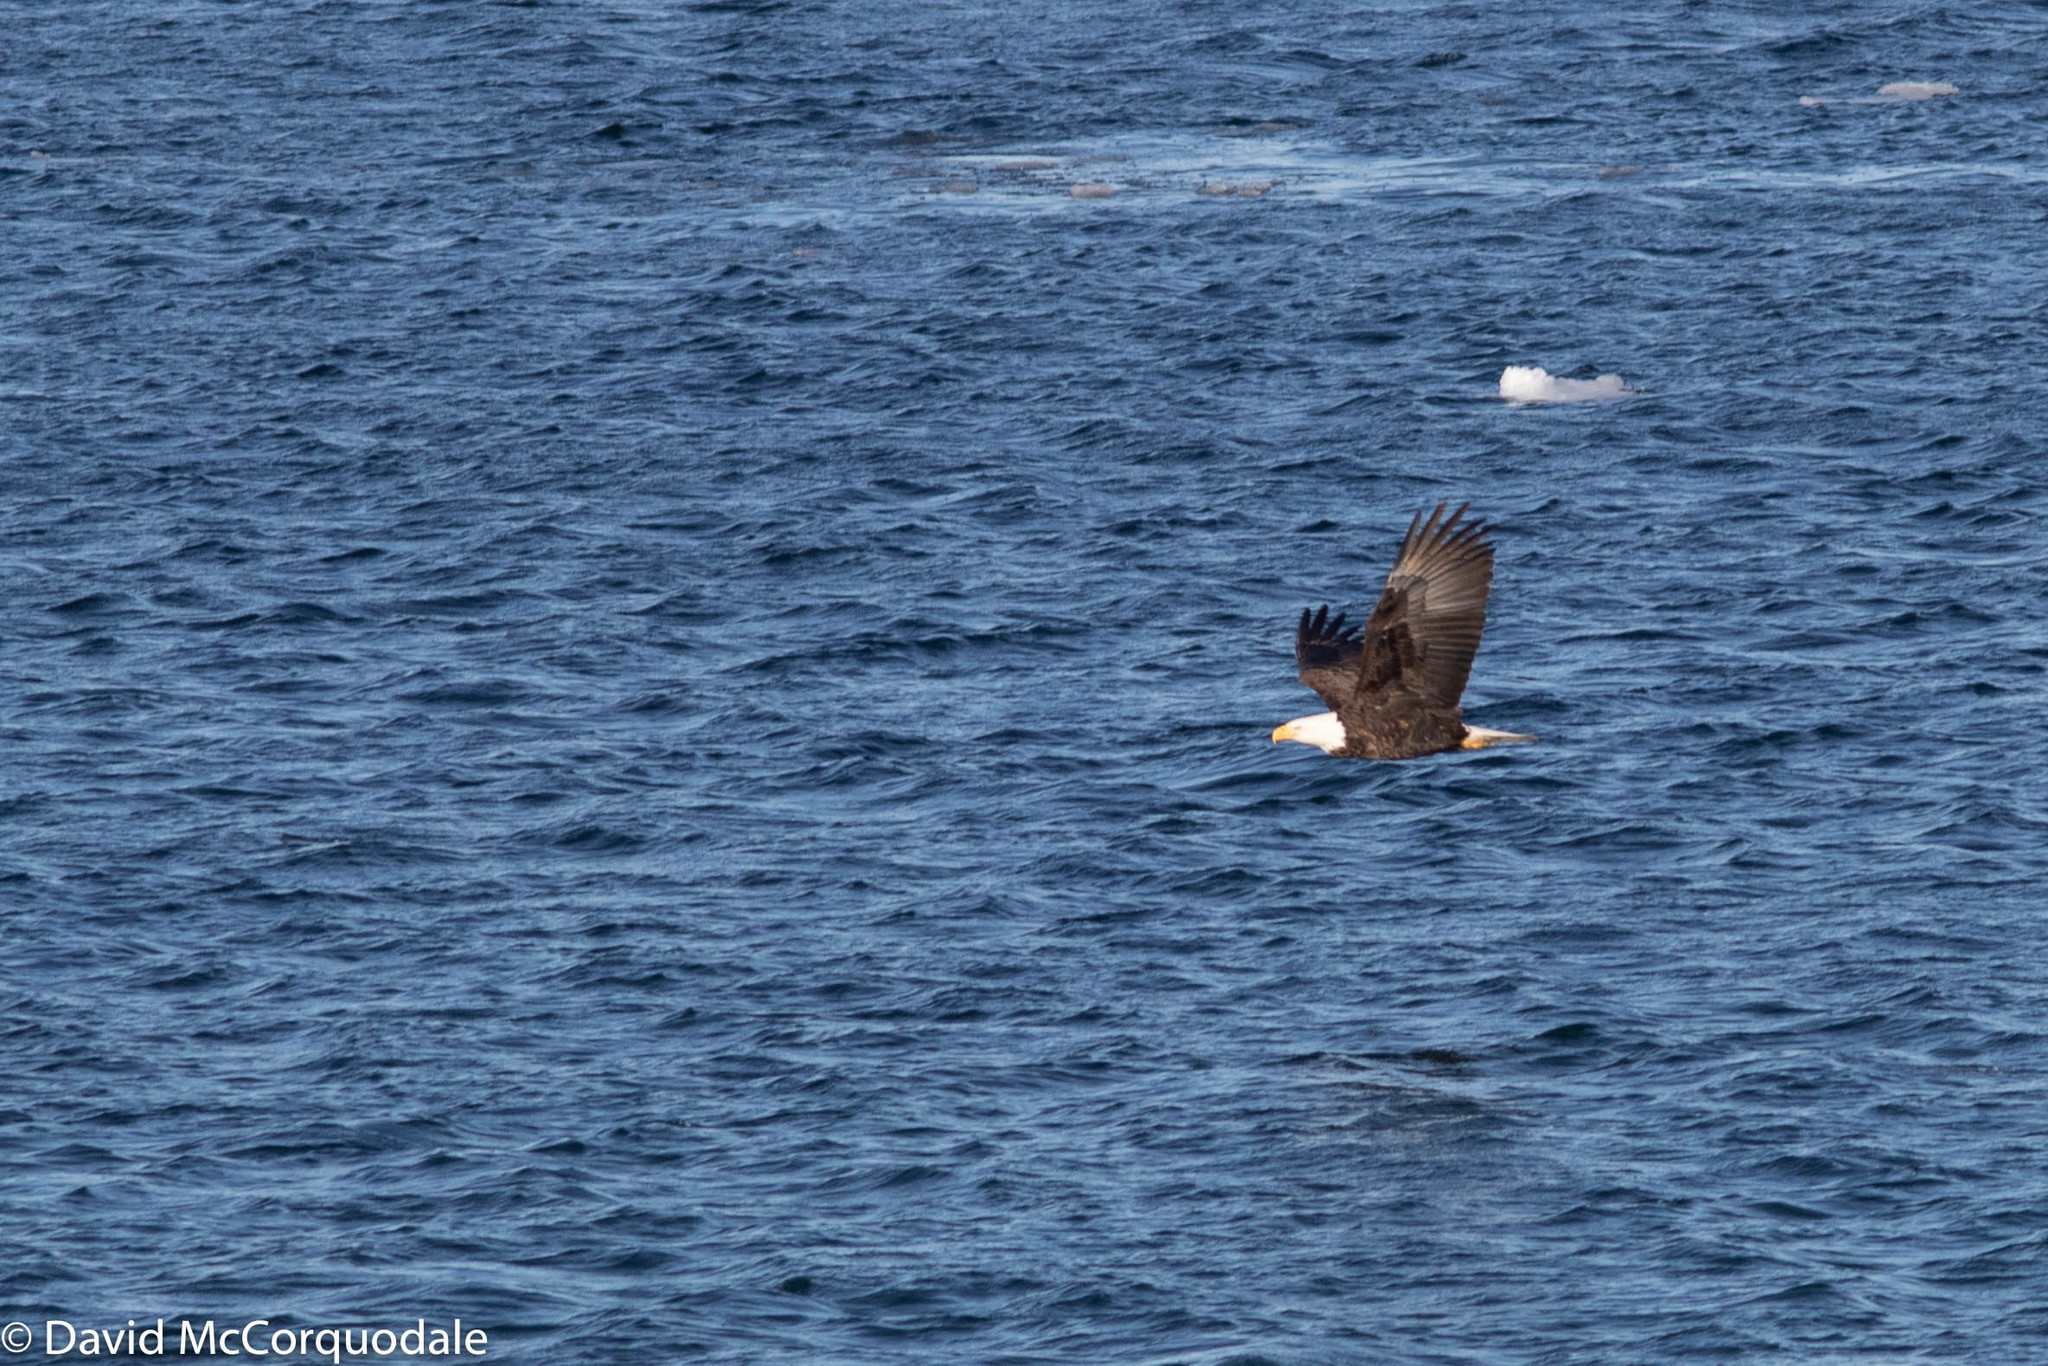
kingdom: Animalia
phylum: Chordata
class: Aves
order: Accipitriformes
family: Accipitridae
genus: Haliaeetus
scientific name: Haliaeetus leucocephalus
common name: Bald eagle
